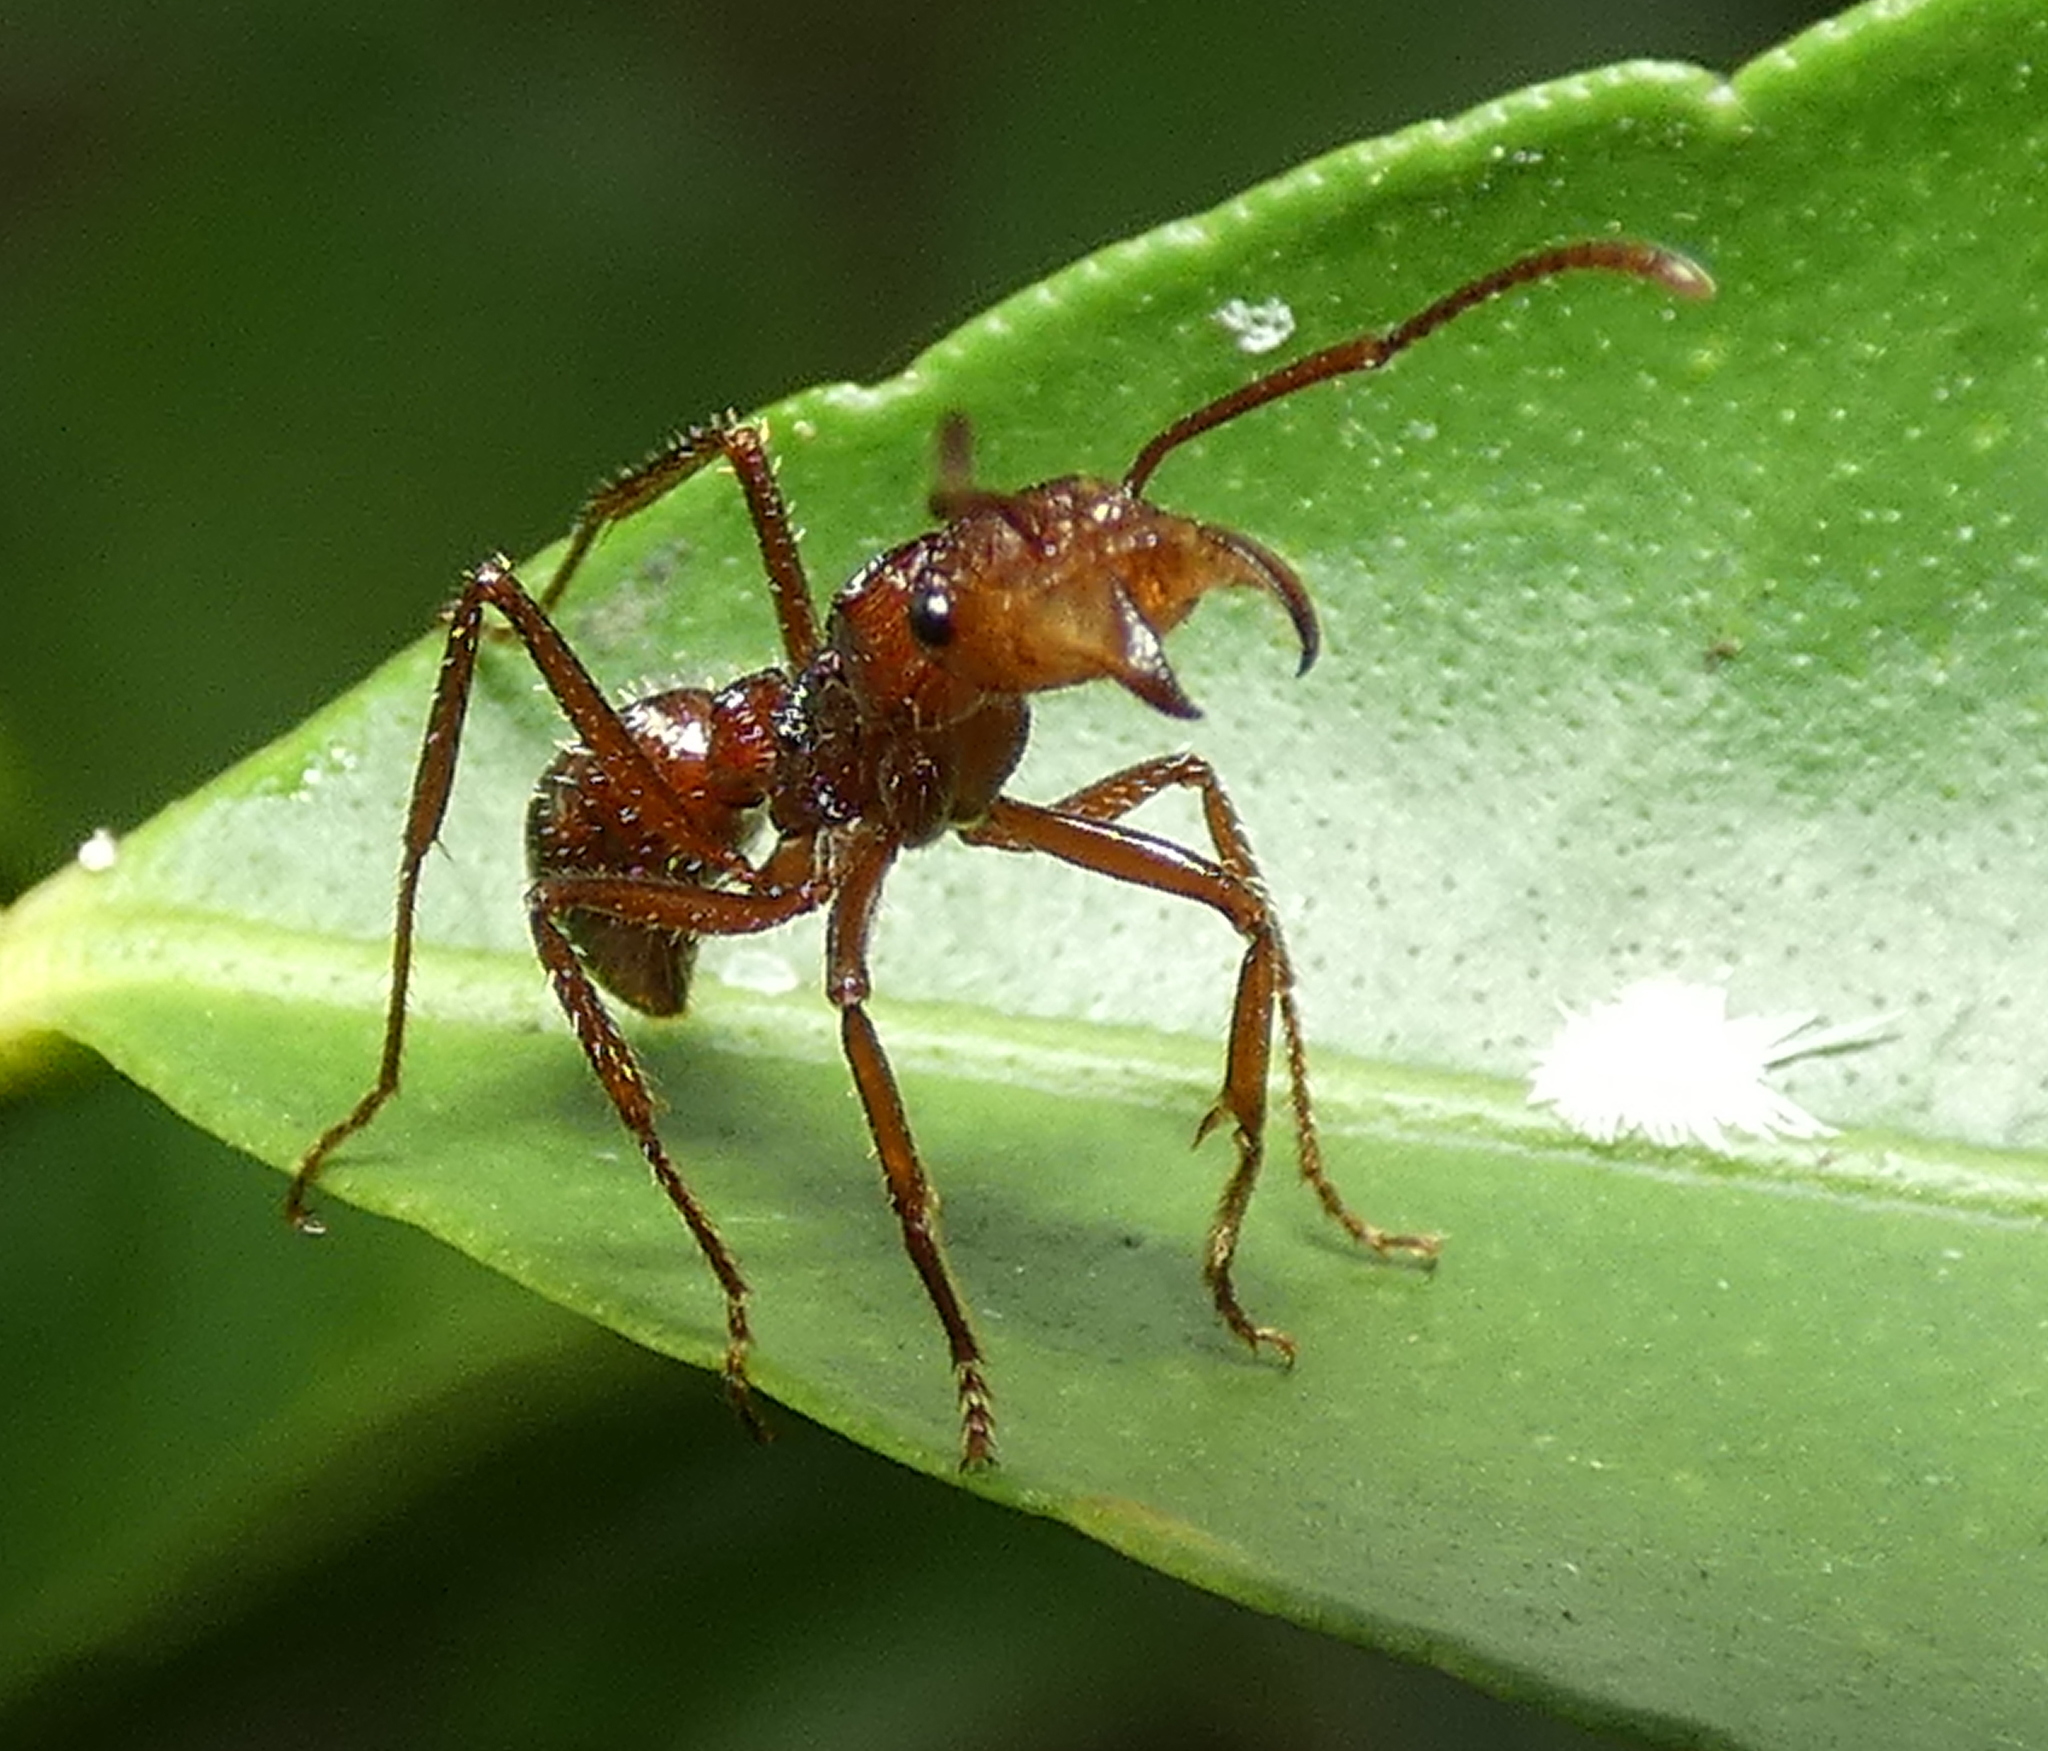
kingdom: Animalia
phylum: Arthropoda
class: Insecta
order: Hymenoptera
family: Formicidae
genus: Ectatomma
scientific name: Ectatomma tuberculatum
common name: Ant
